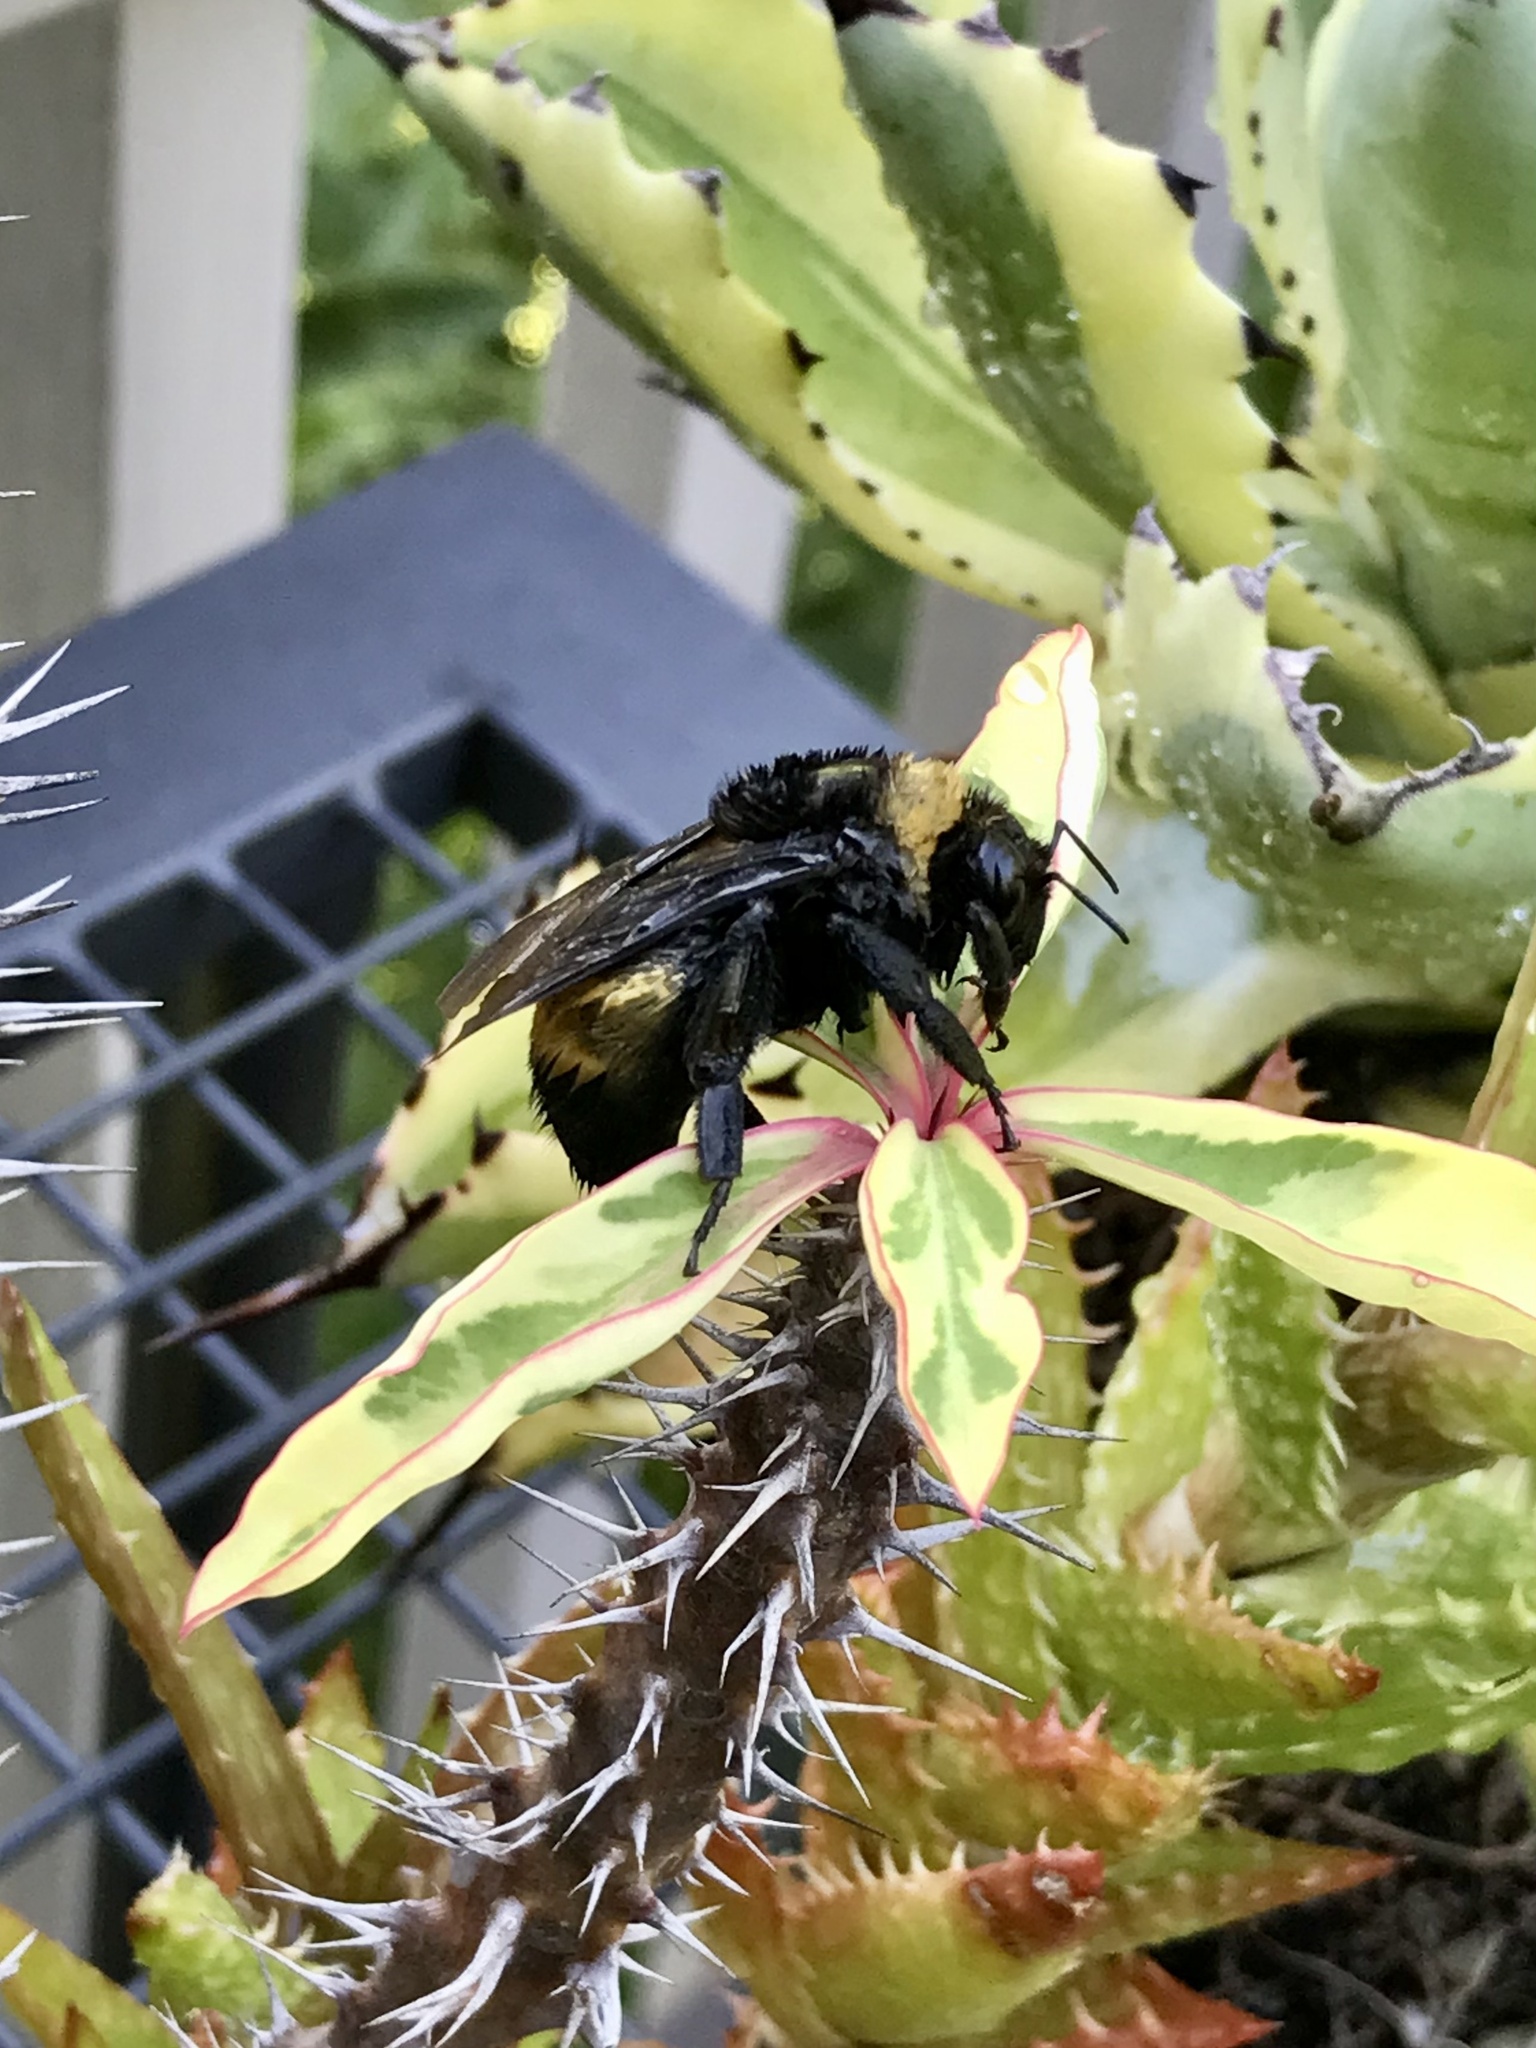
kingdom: Animalia
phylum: Arthropoda
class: Insecta
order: Hymenoptera
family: Apidae
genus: Bombus
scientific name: Bombus auricomus
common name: Black and gold bumble bee
